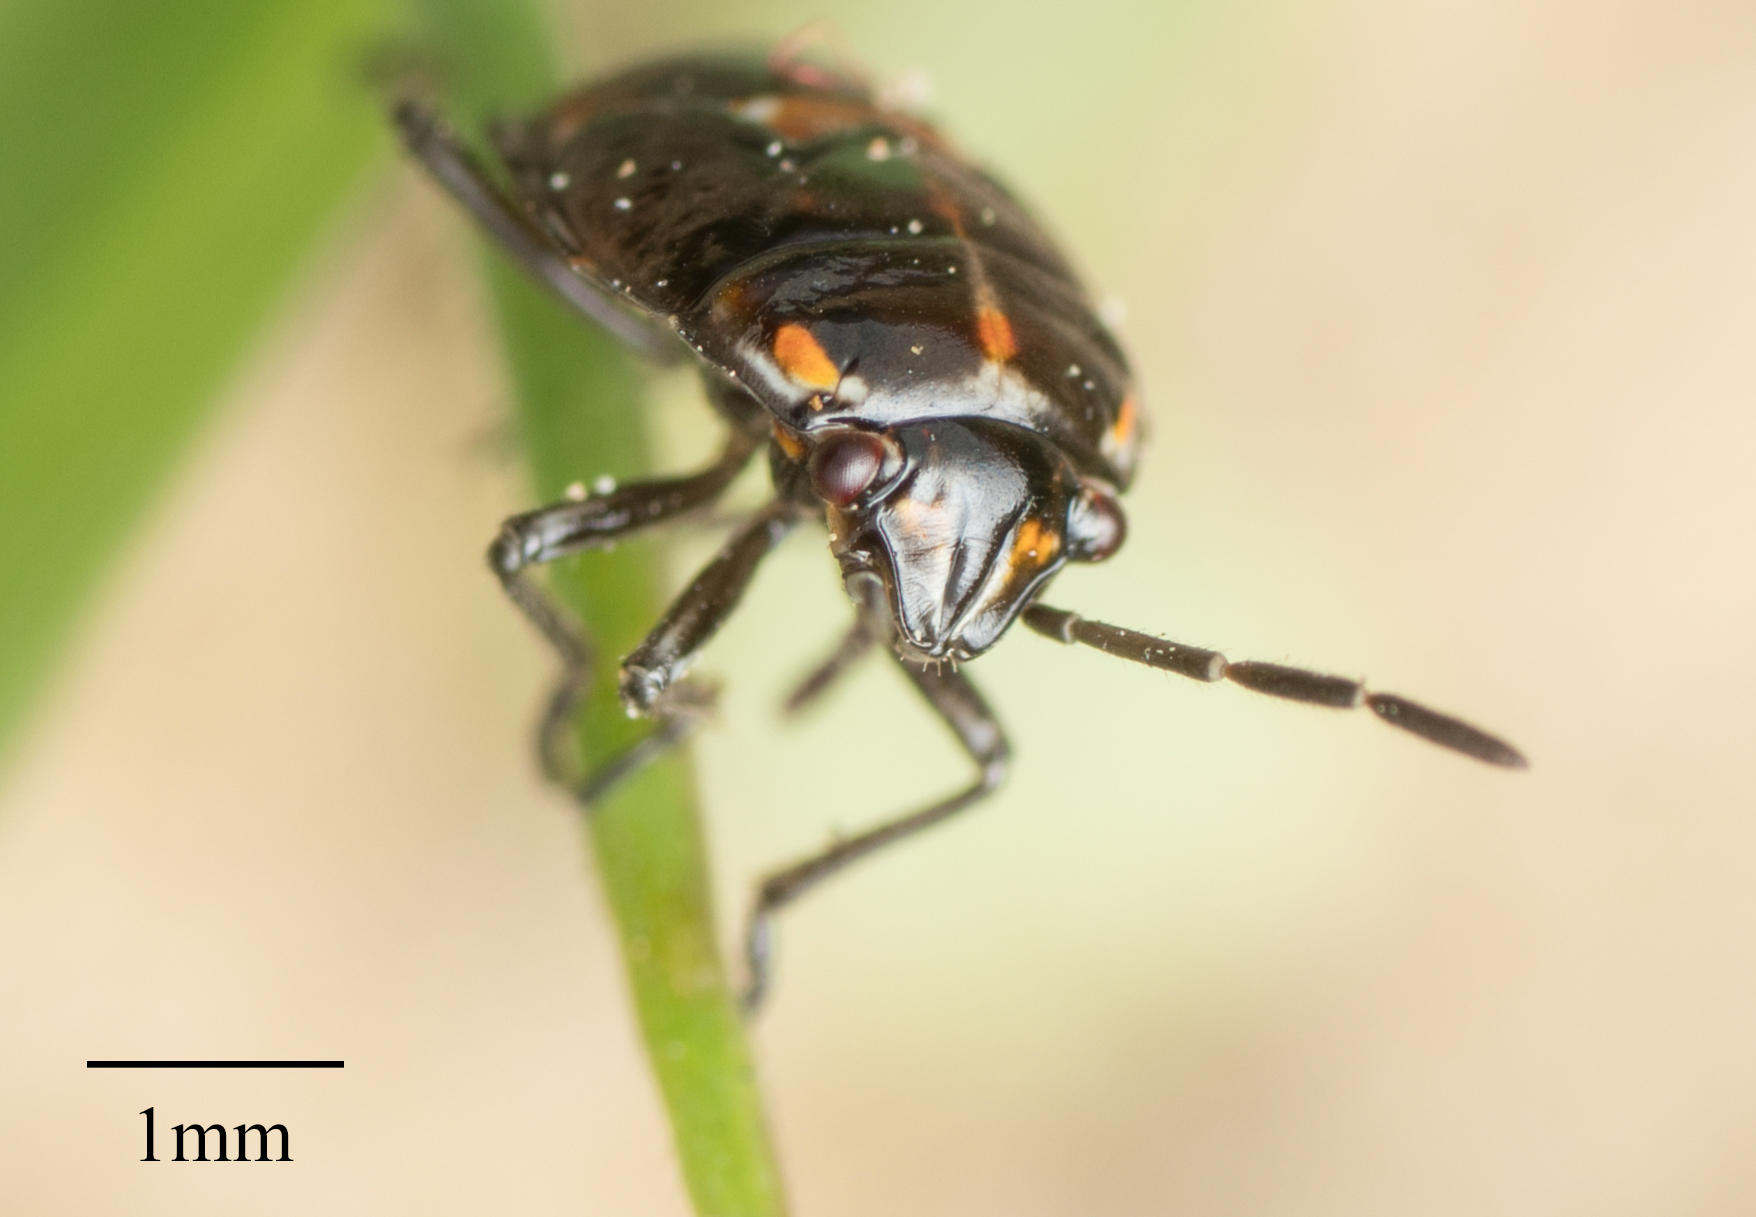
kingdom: Animalia
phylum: Arthropoda
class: Insecta
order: Hemiptera
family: Pentatomidae
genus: Bagrada
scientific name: Bagrada hilaris
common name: Bagrada bug
